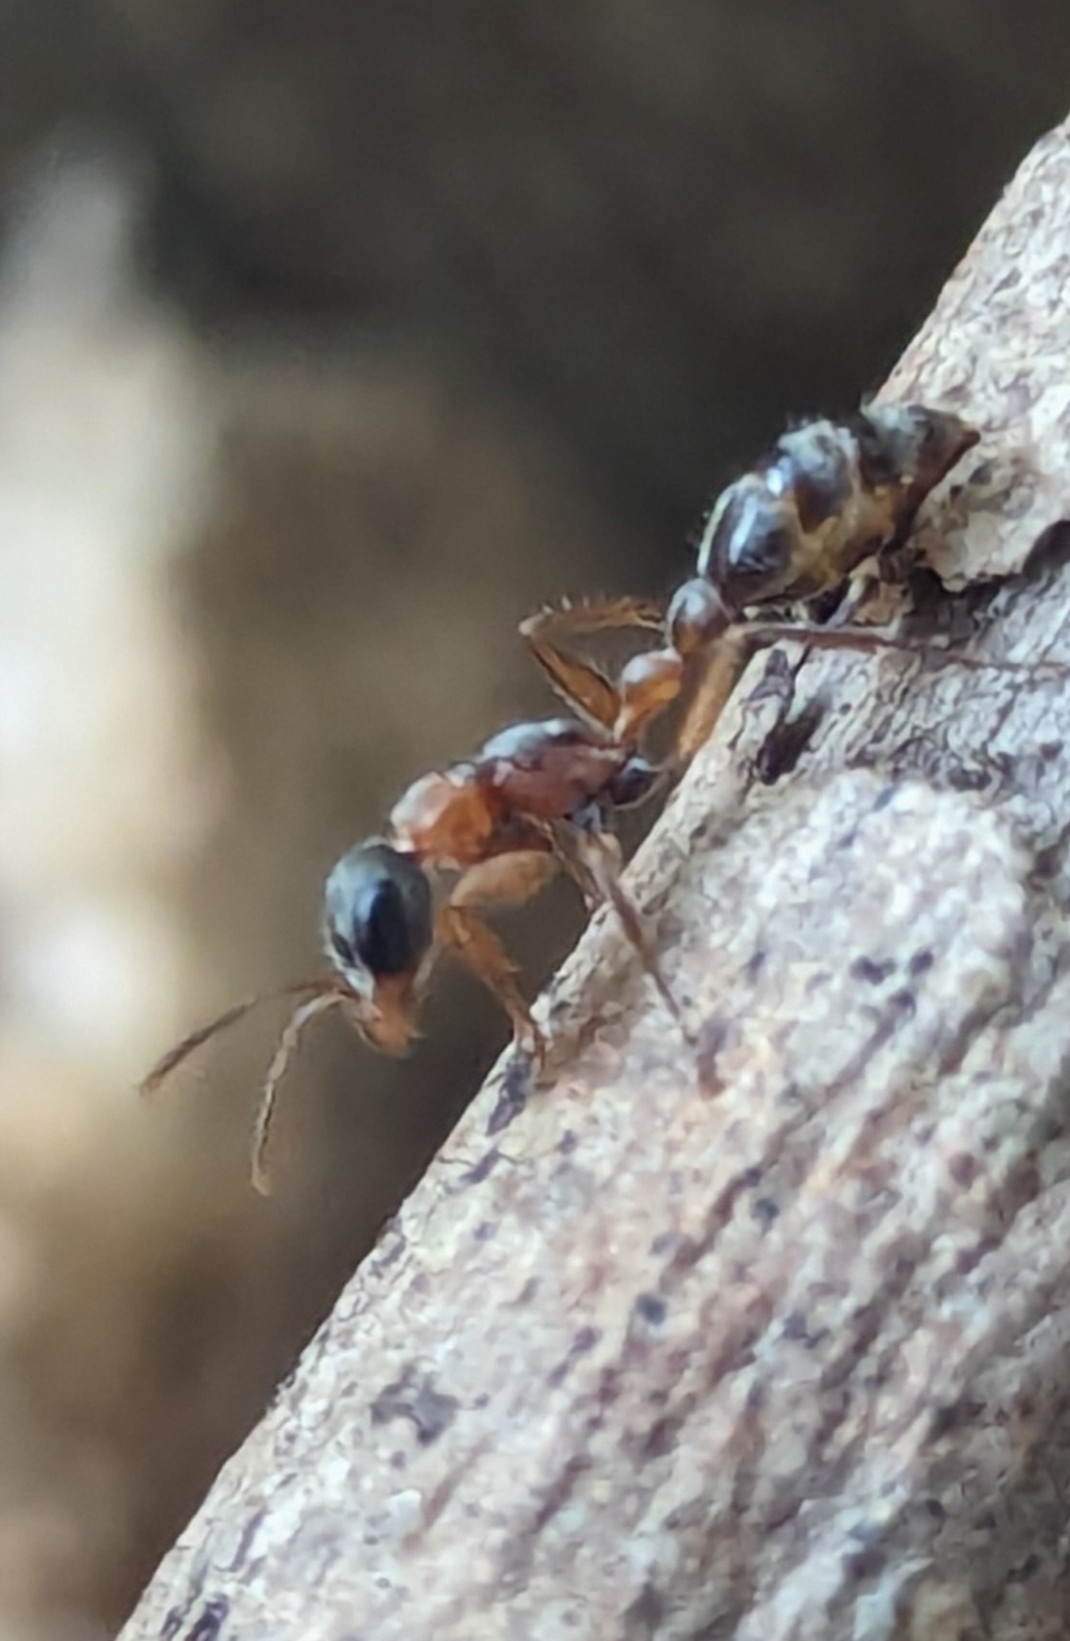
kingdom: Animalia
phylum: Arthropoda
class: Insecta
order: Hymenoptera
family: Formicidae
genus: Pseudomyrmex
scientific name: Pseudomyrmex gracilis
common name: Graceful twig ant
